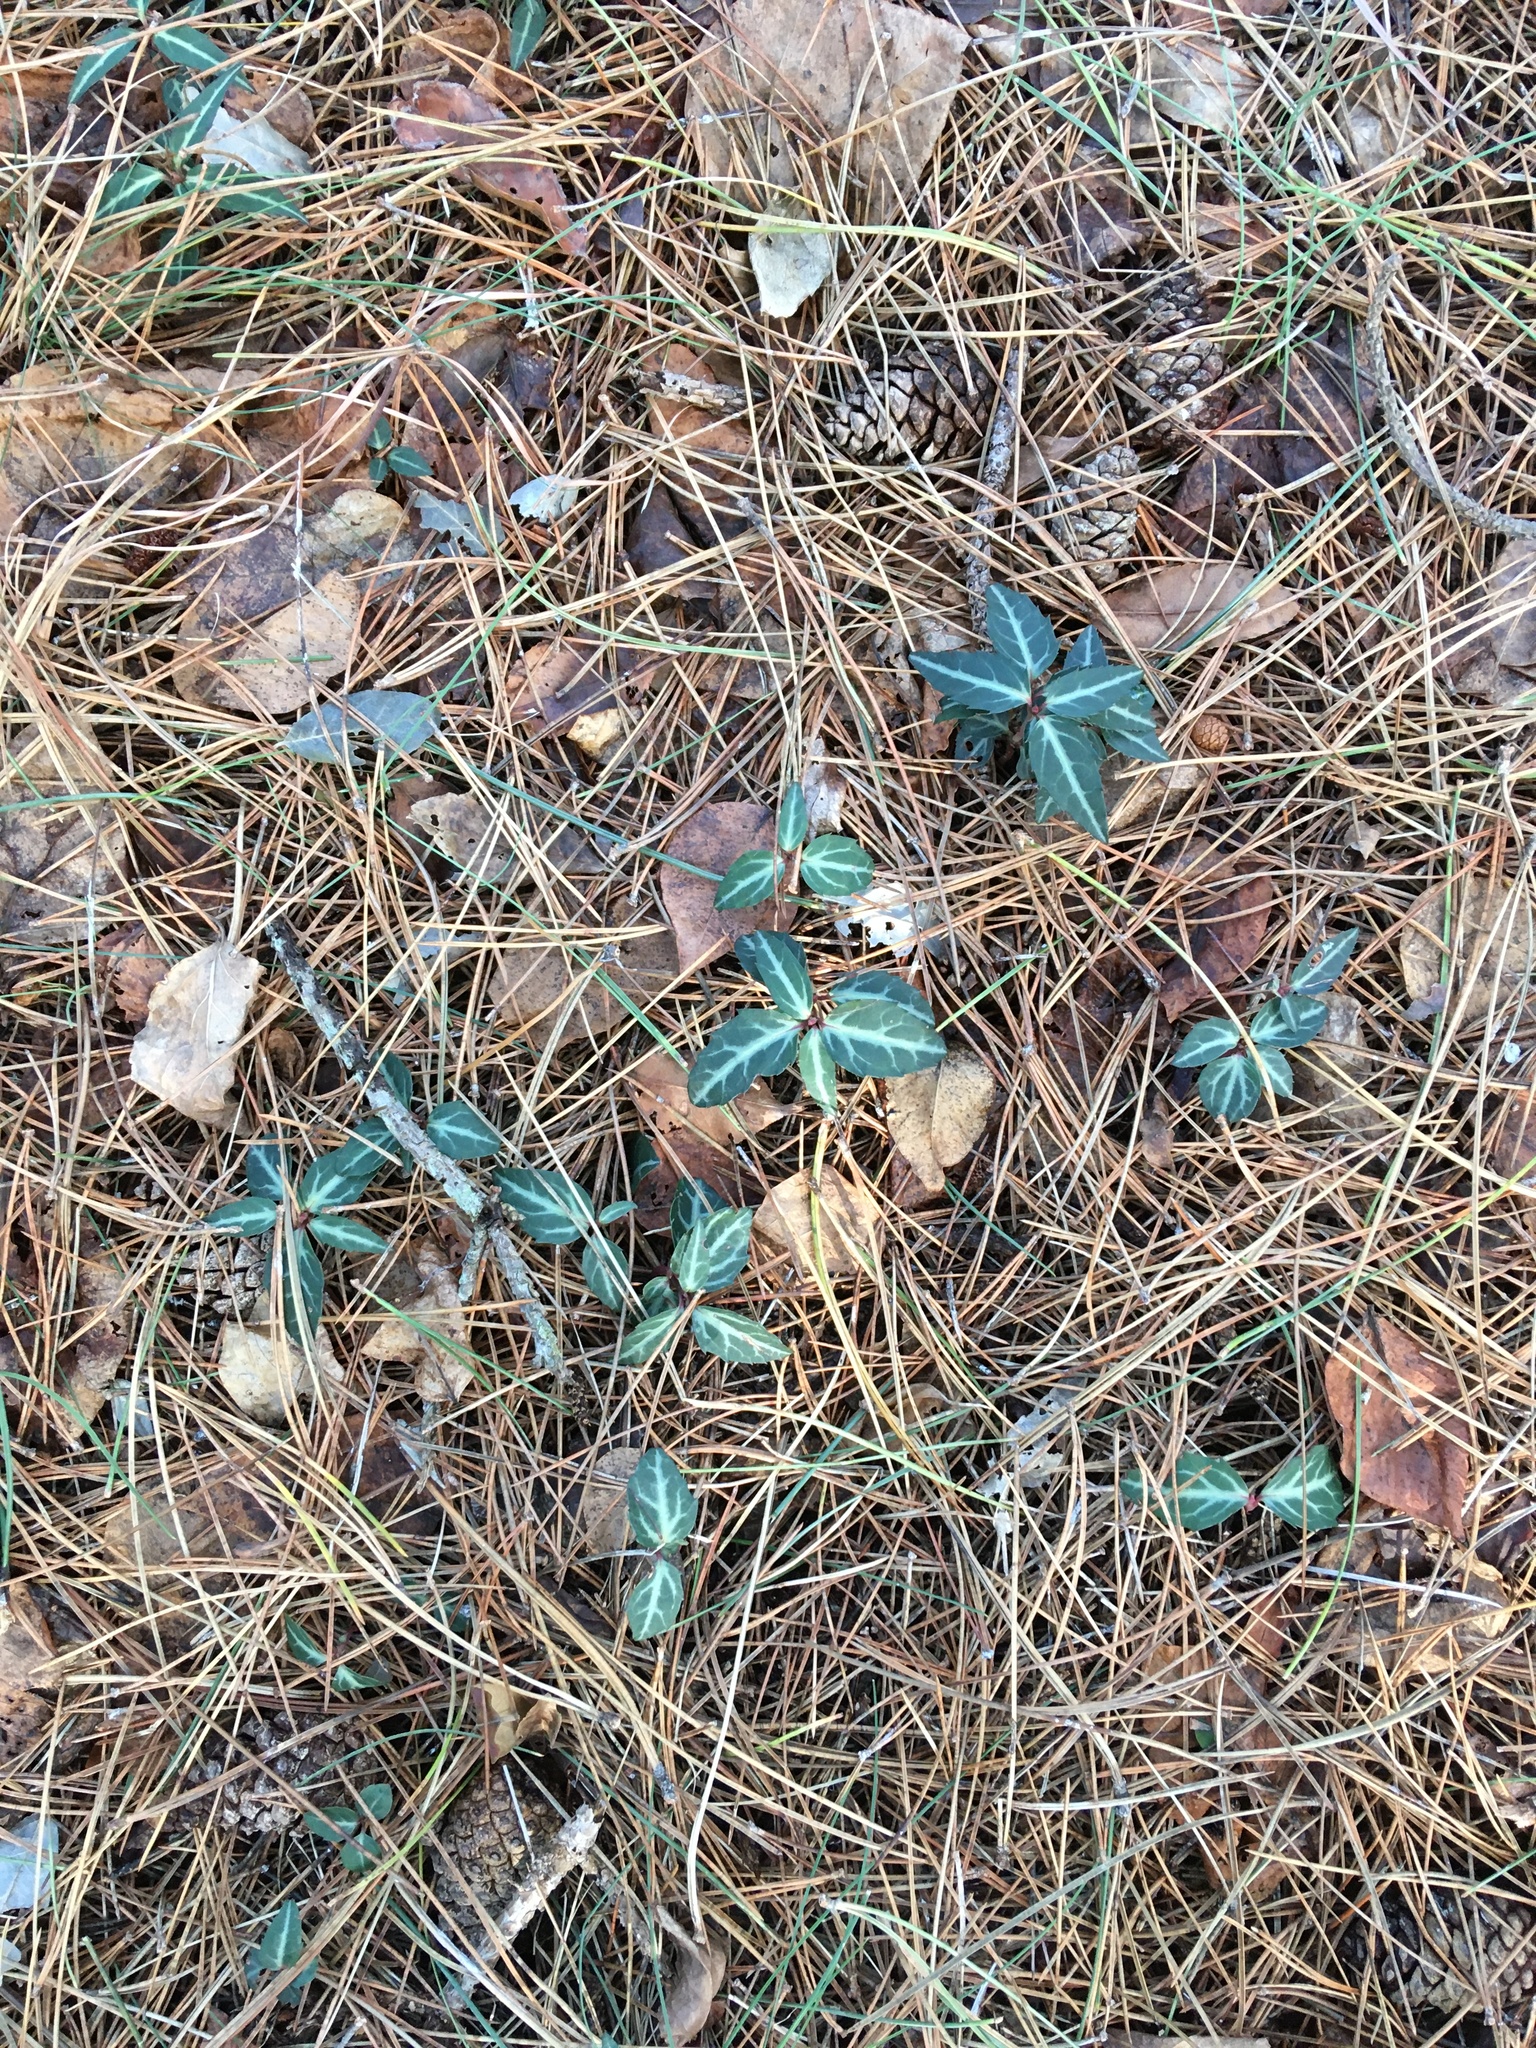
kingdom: Plantae
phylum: Tracheophyta
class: Magnoliopsida
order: Ericales
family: Ericaceae
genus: Chimaphila
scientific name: Chimaphila maculata
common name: Spotted pipsissewa
